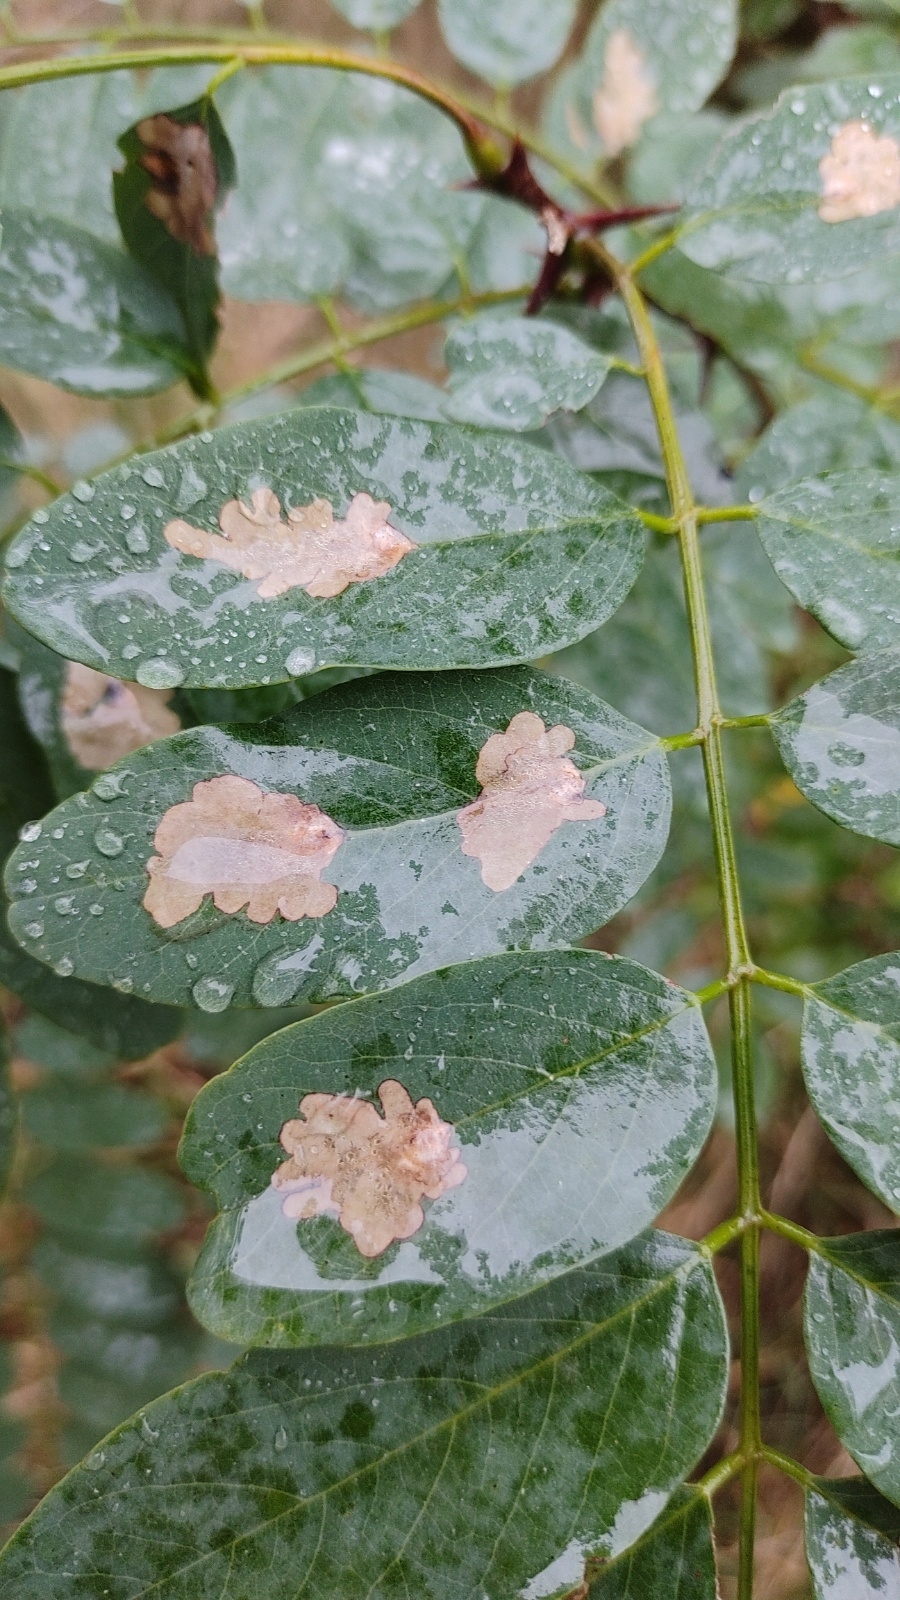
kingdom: Animalia
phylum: Arthropoda
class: Insecta
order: Lepidoptera
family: Gracillariidae
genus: Parectopa
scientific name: Parectopa robiniella
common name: Locust digitate leafminer
